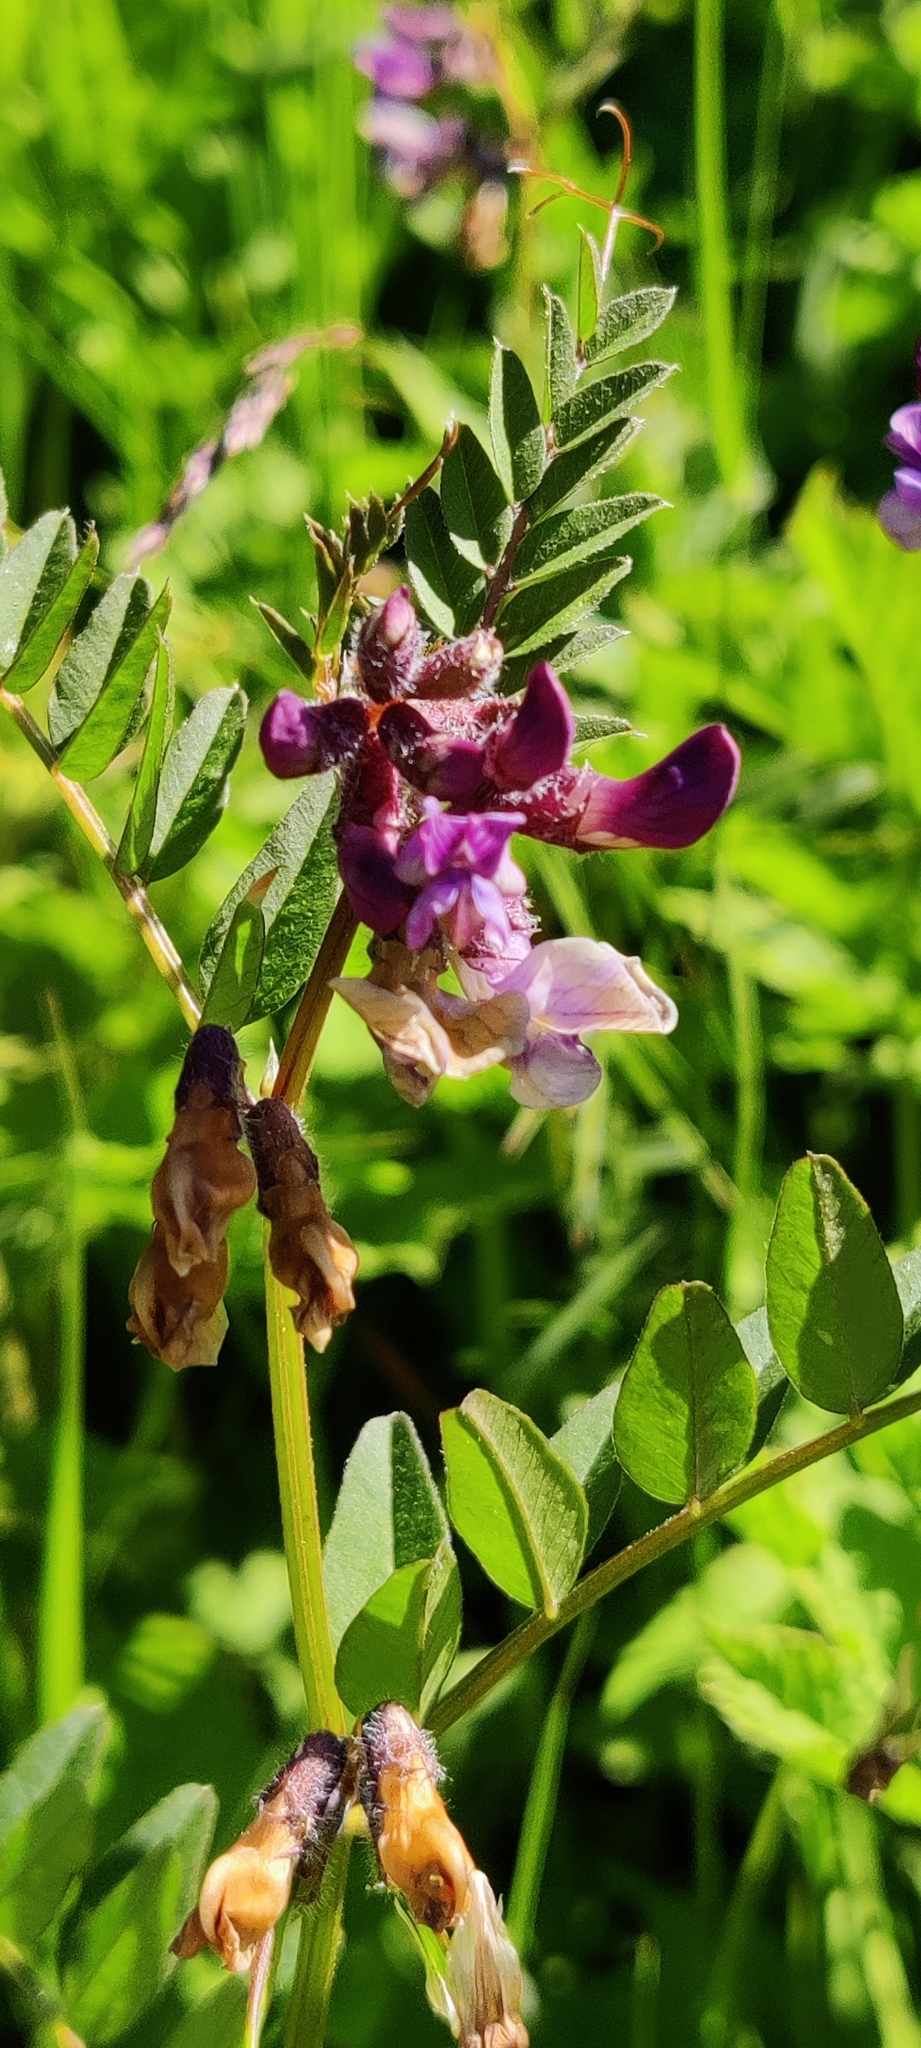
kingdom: Plantae
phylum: Tracheophyta
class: Magnoliopsida
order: Fabales
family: Fabaceae
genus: Vicia
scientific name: Vicia sepium
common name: Bush vetch
